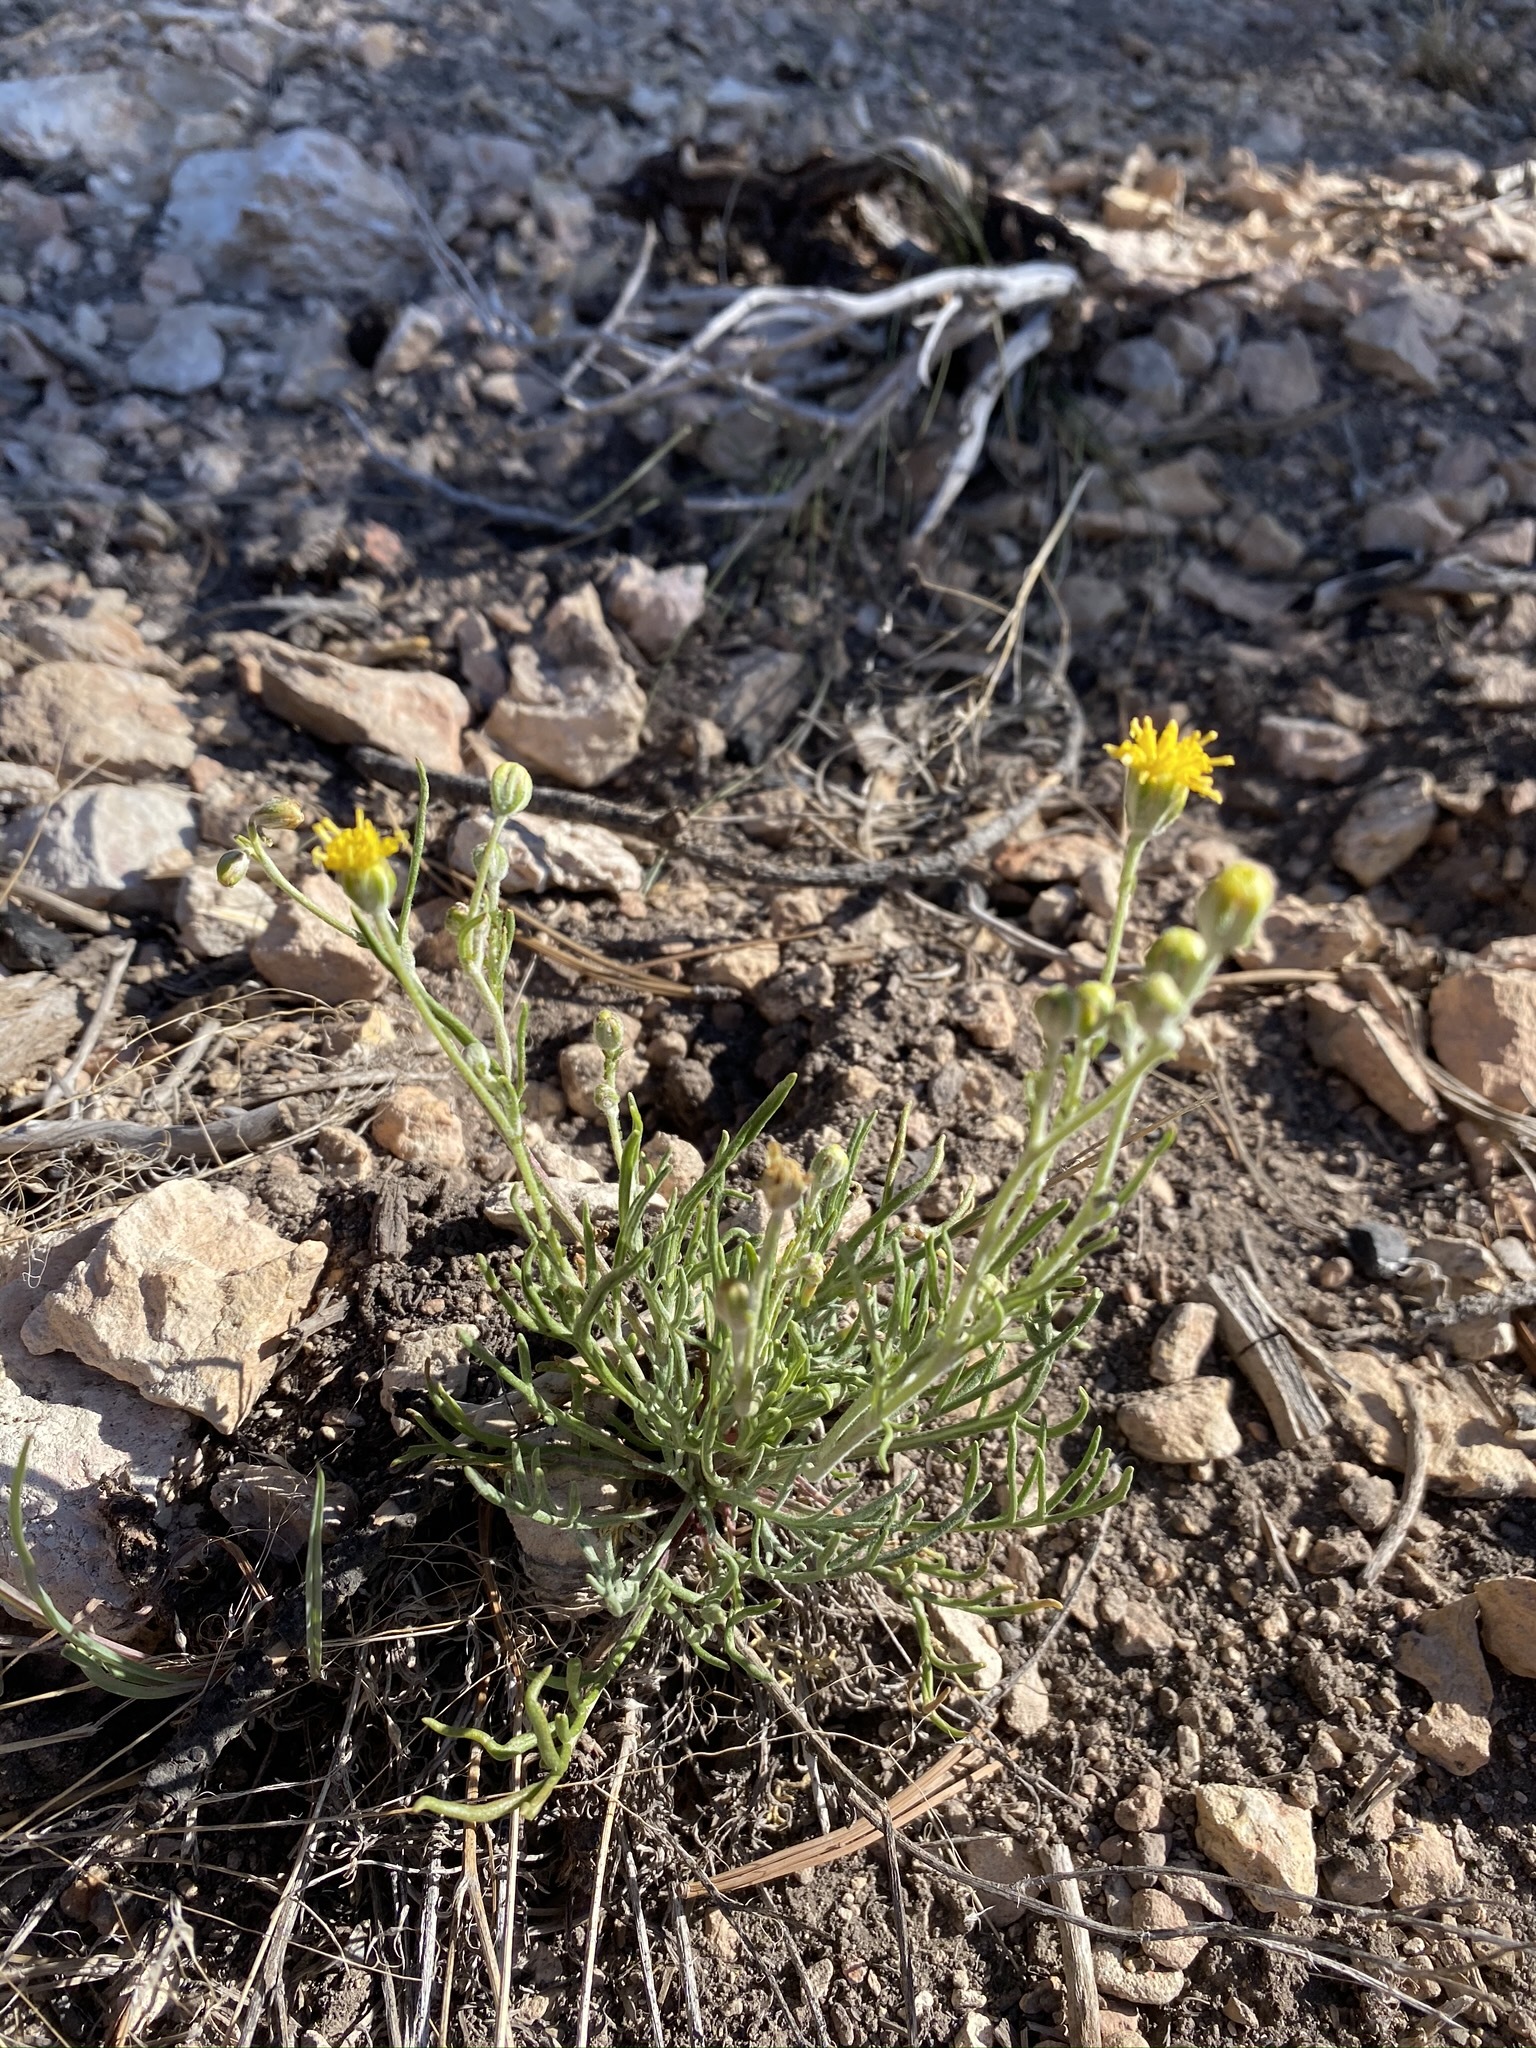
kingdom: Plantae
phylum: Tracheophyta
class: Magnoliopsida
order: Asterales
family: Asteraceae
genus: Hymenopappus
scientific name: Hymenopappus filifolius
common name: Columbia cutleaf
